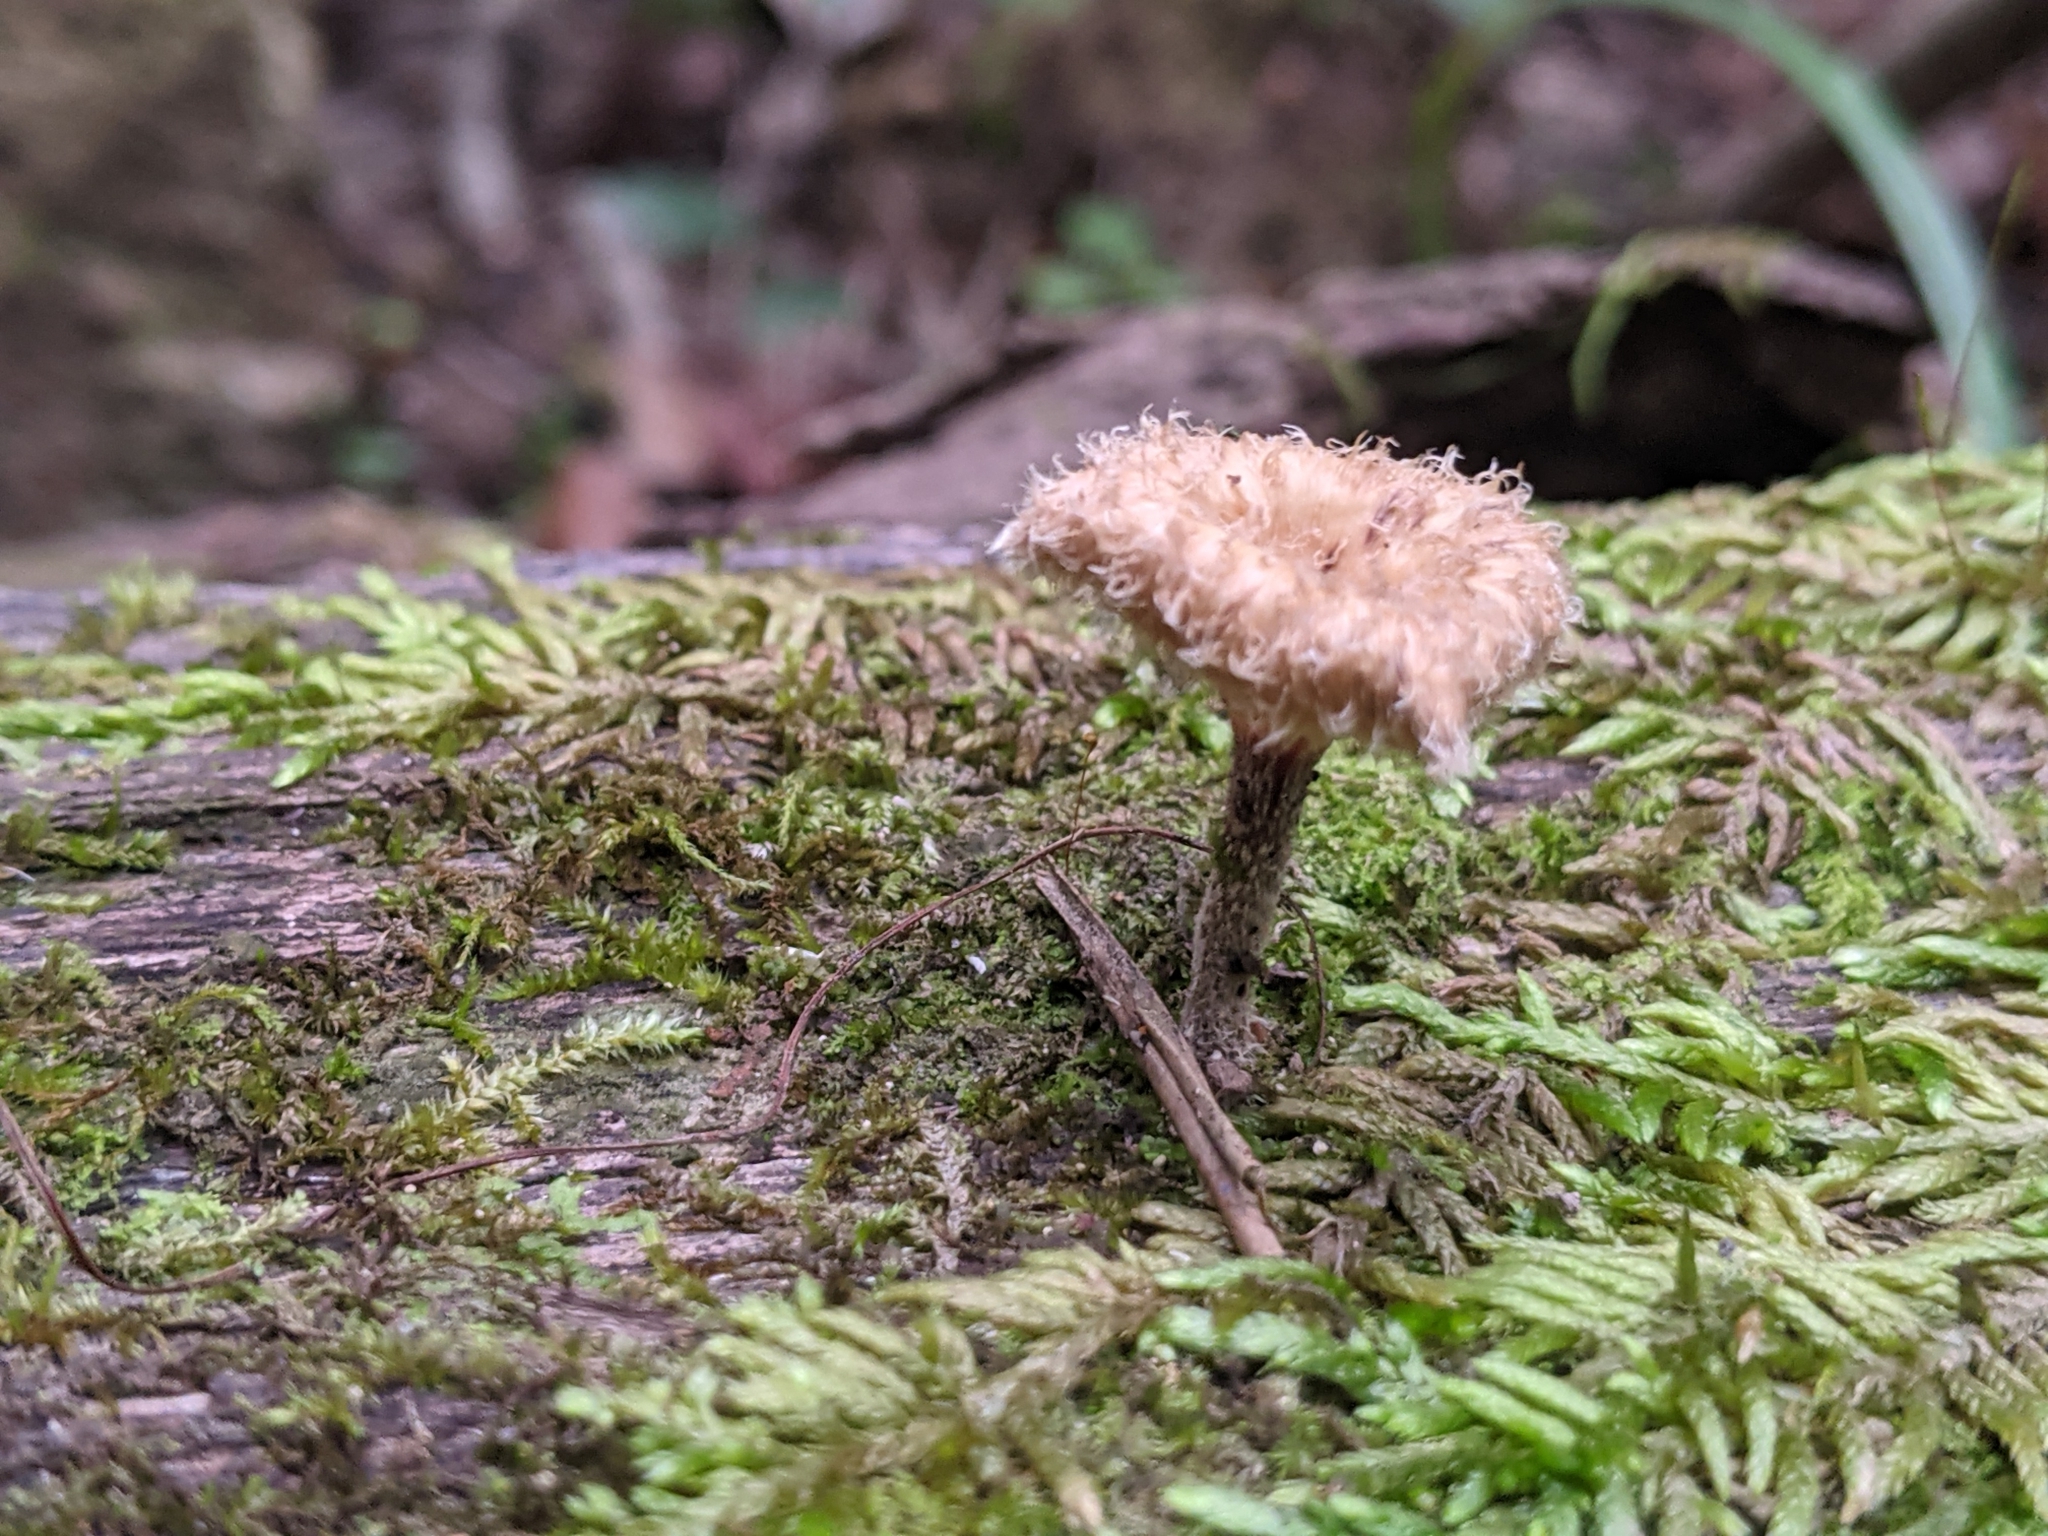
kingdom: Fungi
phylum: Basidiomycota
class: Agaricomycetes
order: Polyporales
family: Polyporaceae
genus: Lentinus
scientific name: Lentinus crinitus
